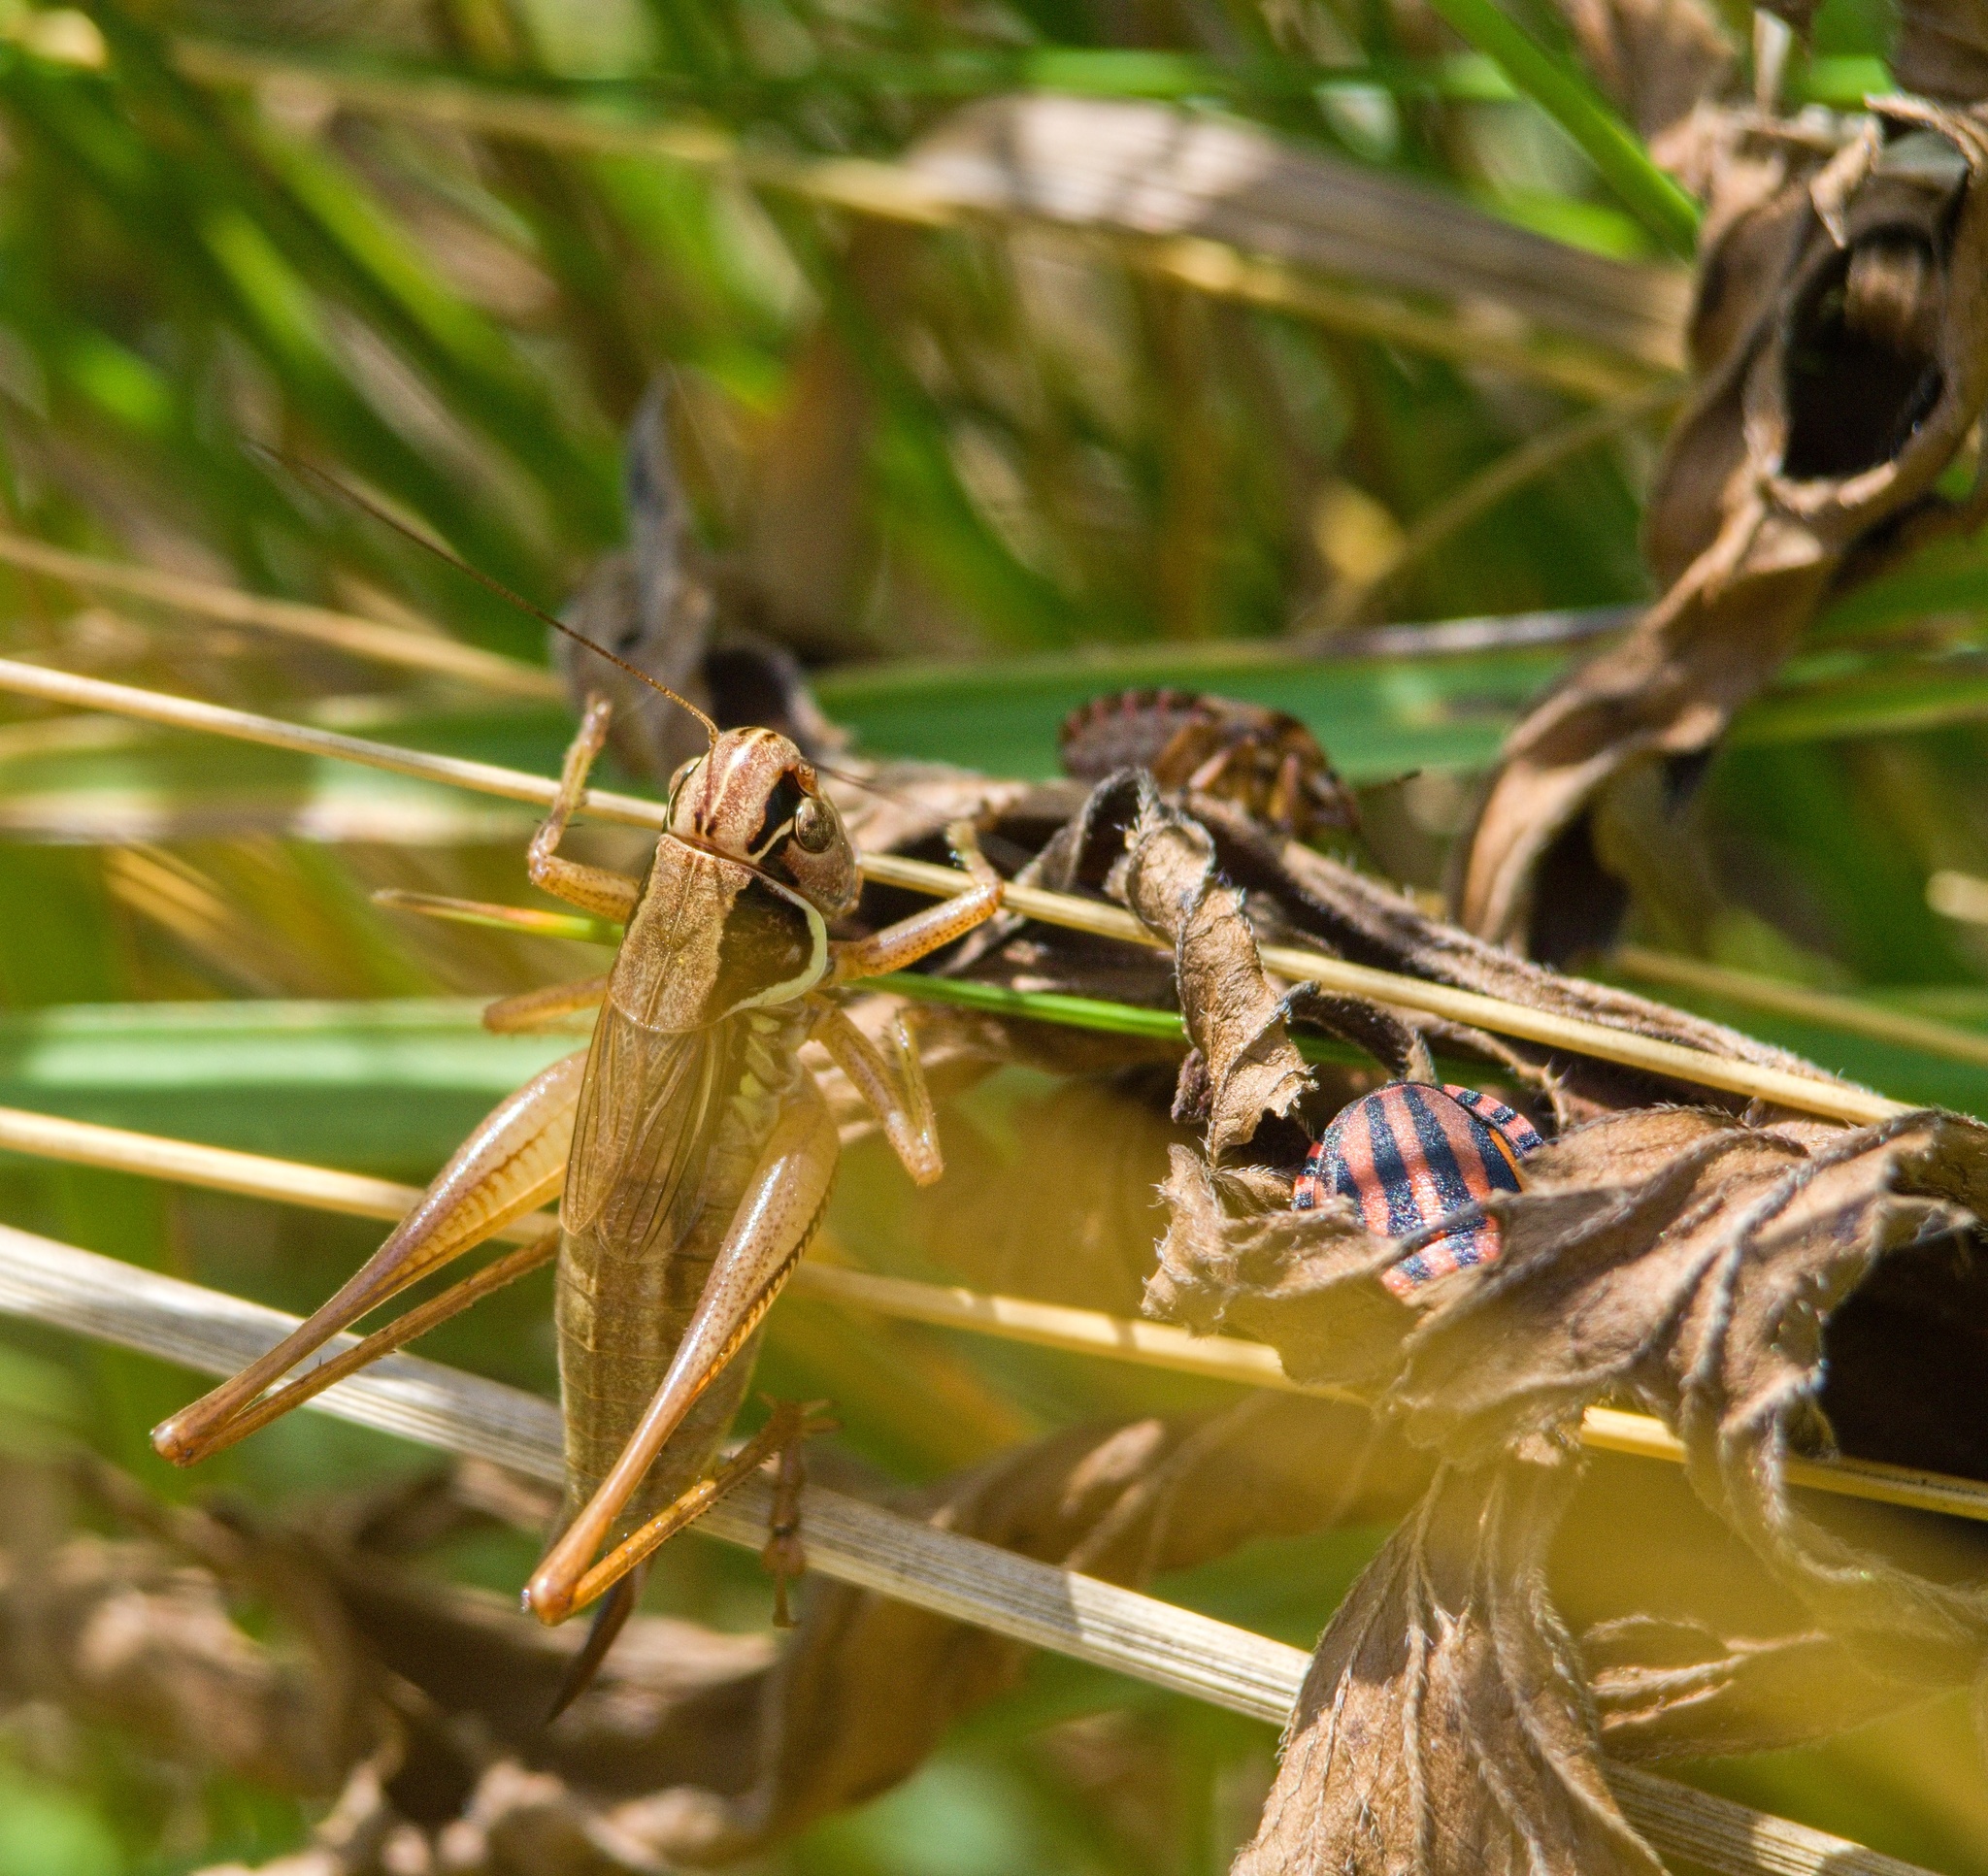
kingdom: Animalia
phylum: Arthropoda
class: Insecta
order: Orthoptera
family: Tettigoniidae
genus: Roeseliana
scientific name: Roeseliana roeselii
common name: Roesel's bush cricket
